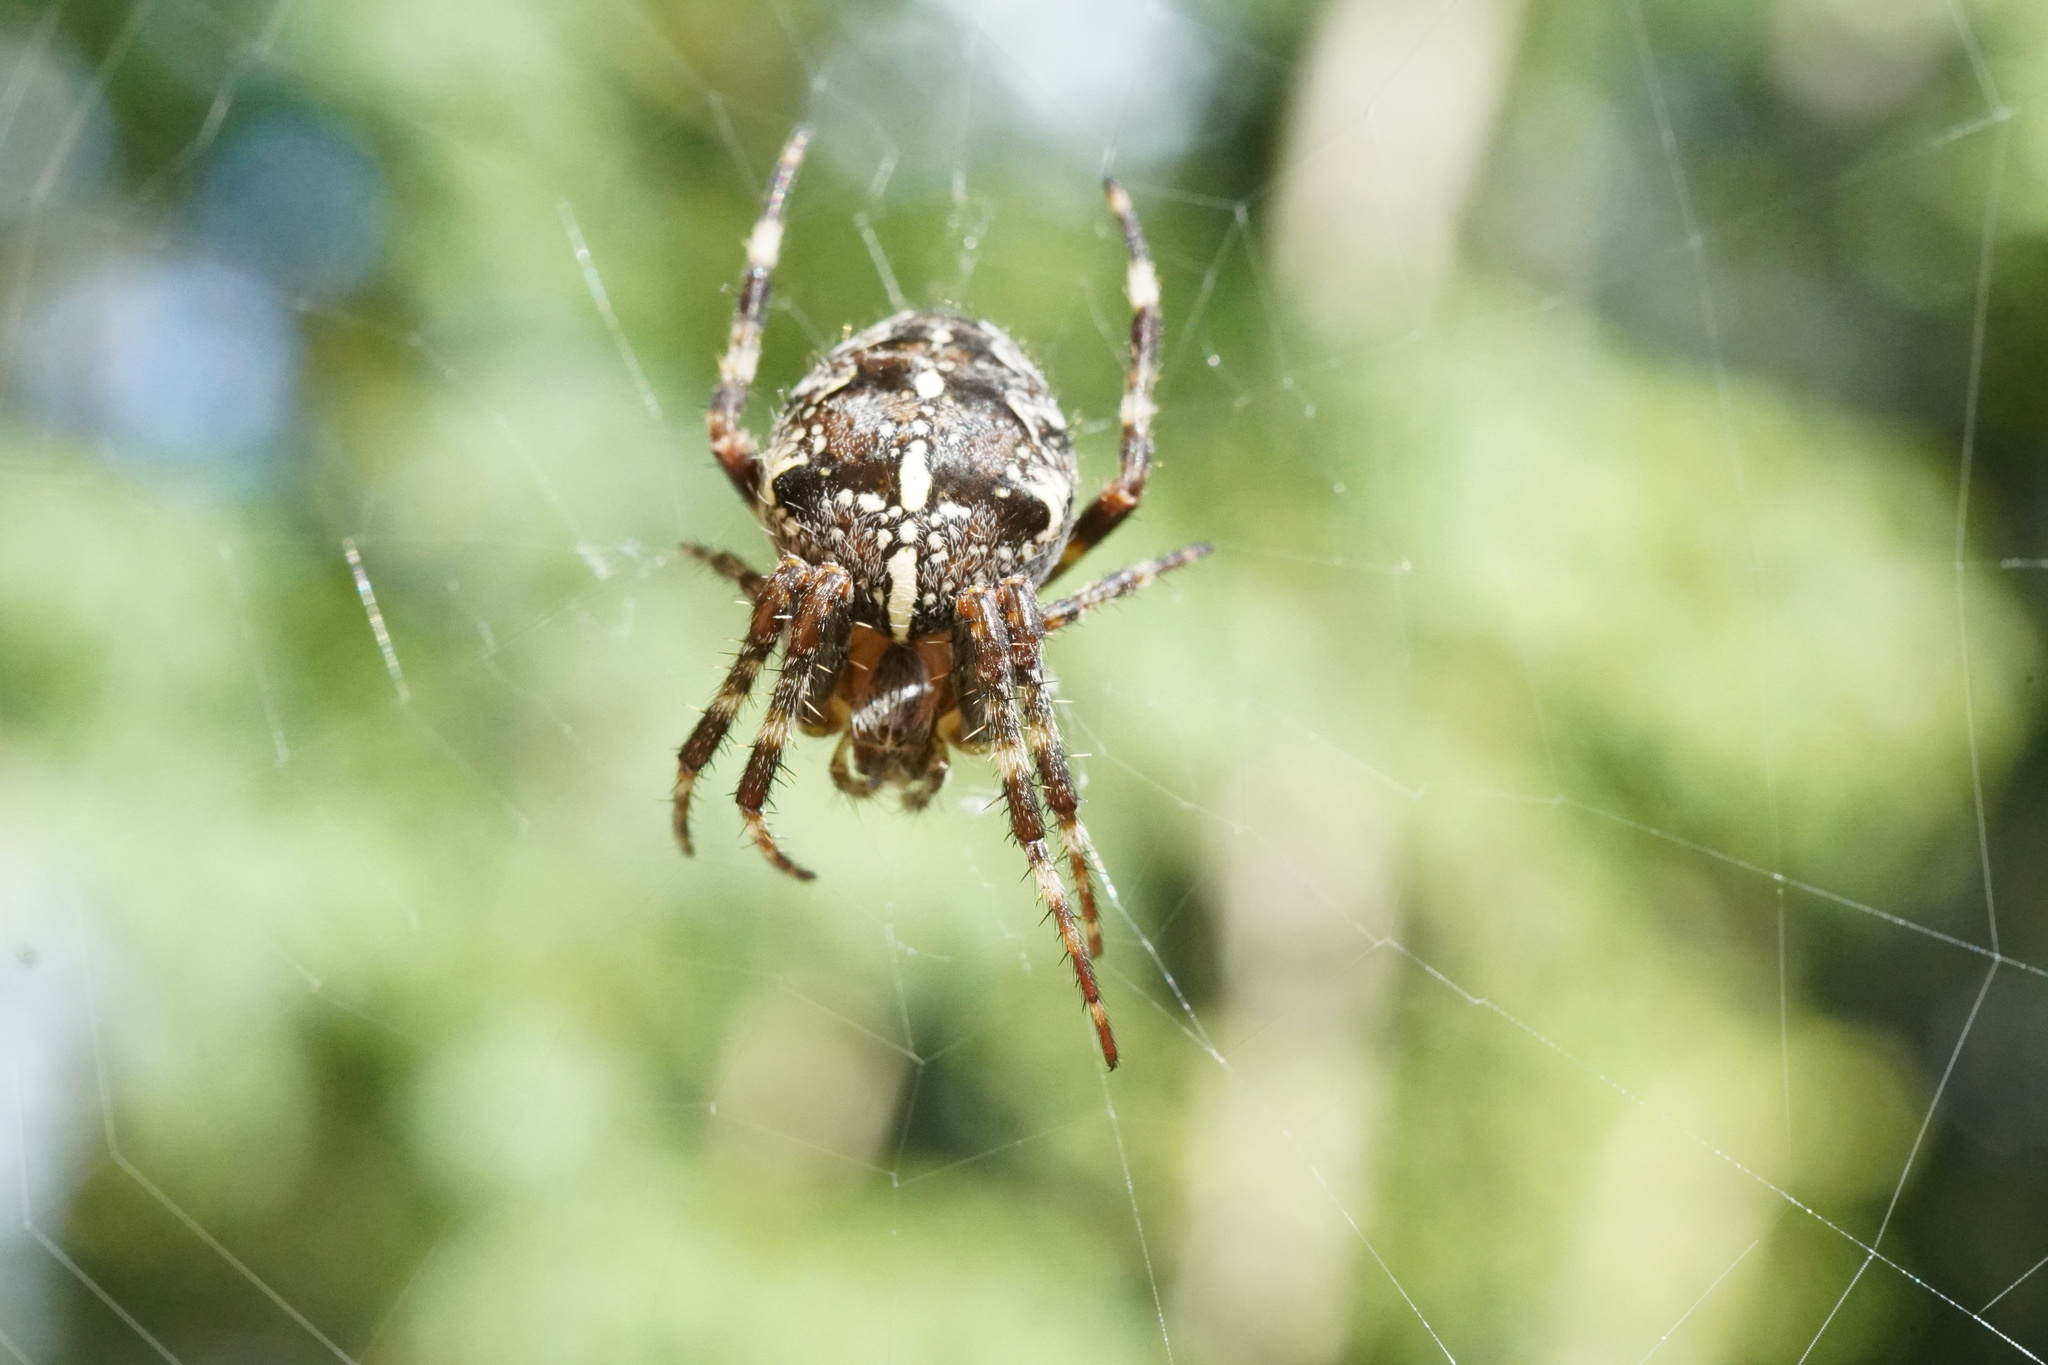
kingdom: Animalia
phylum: Arthropoda
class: Arachnida
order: Araneae
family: Araneidae
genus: Araneus
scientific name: Araneus diadematus
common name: Cross orbweaver
